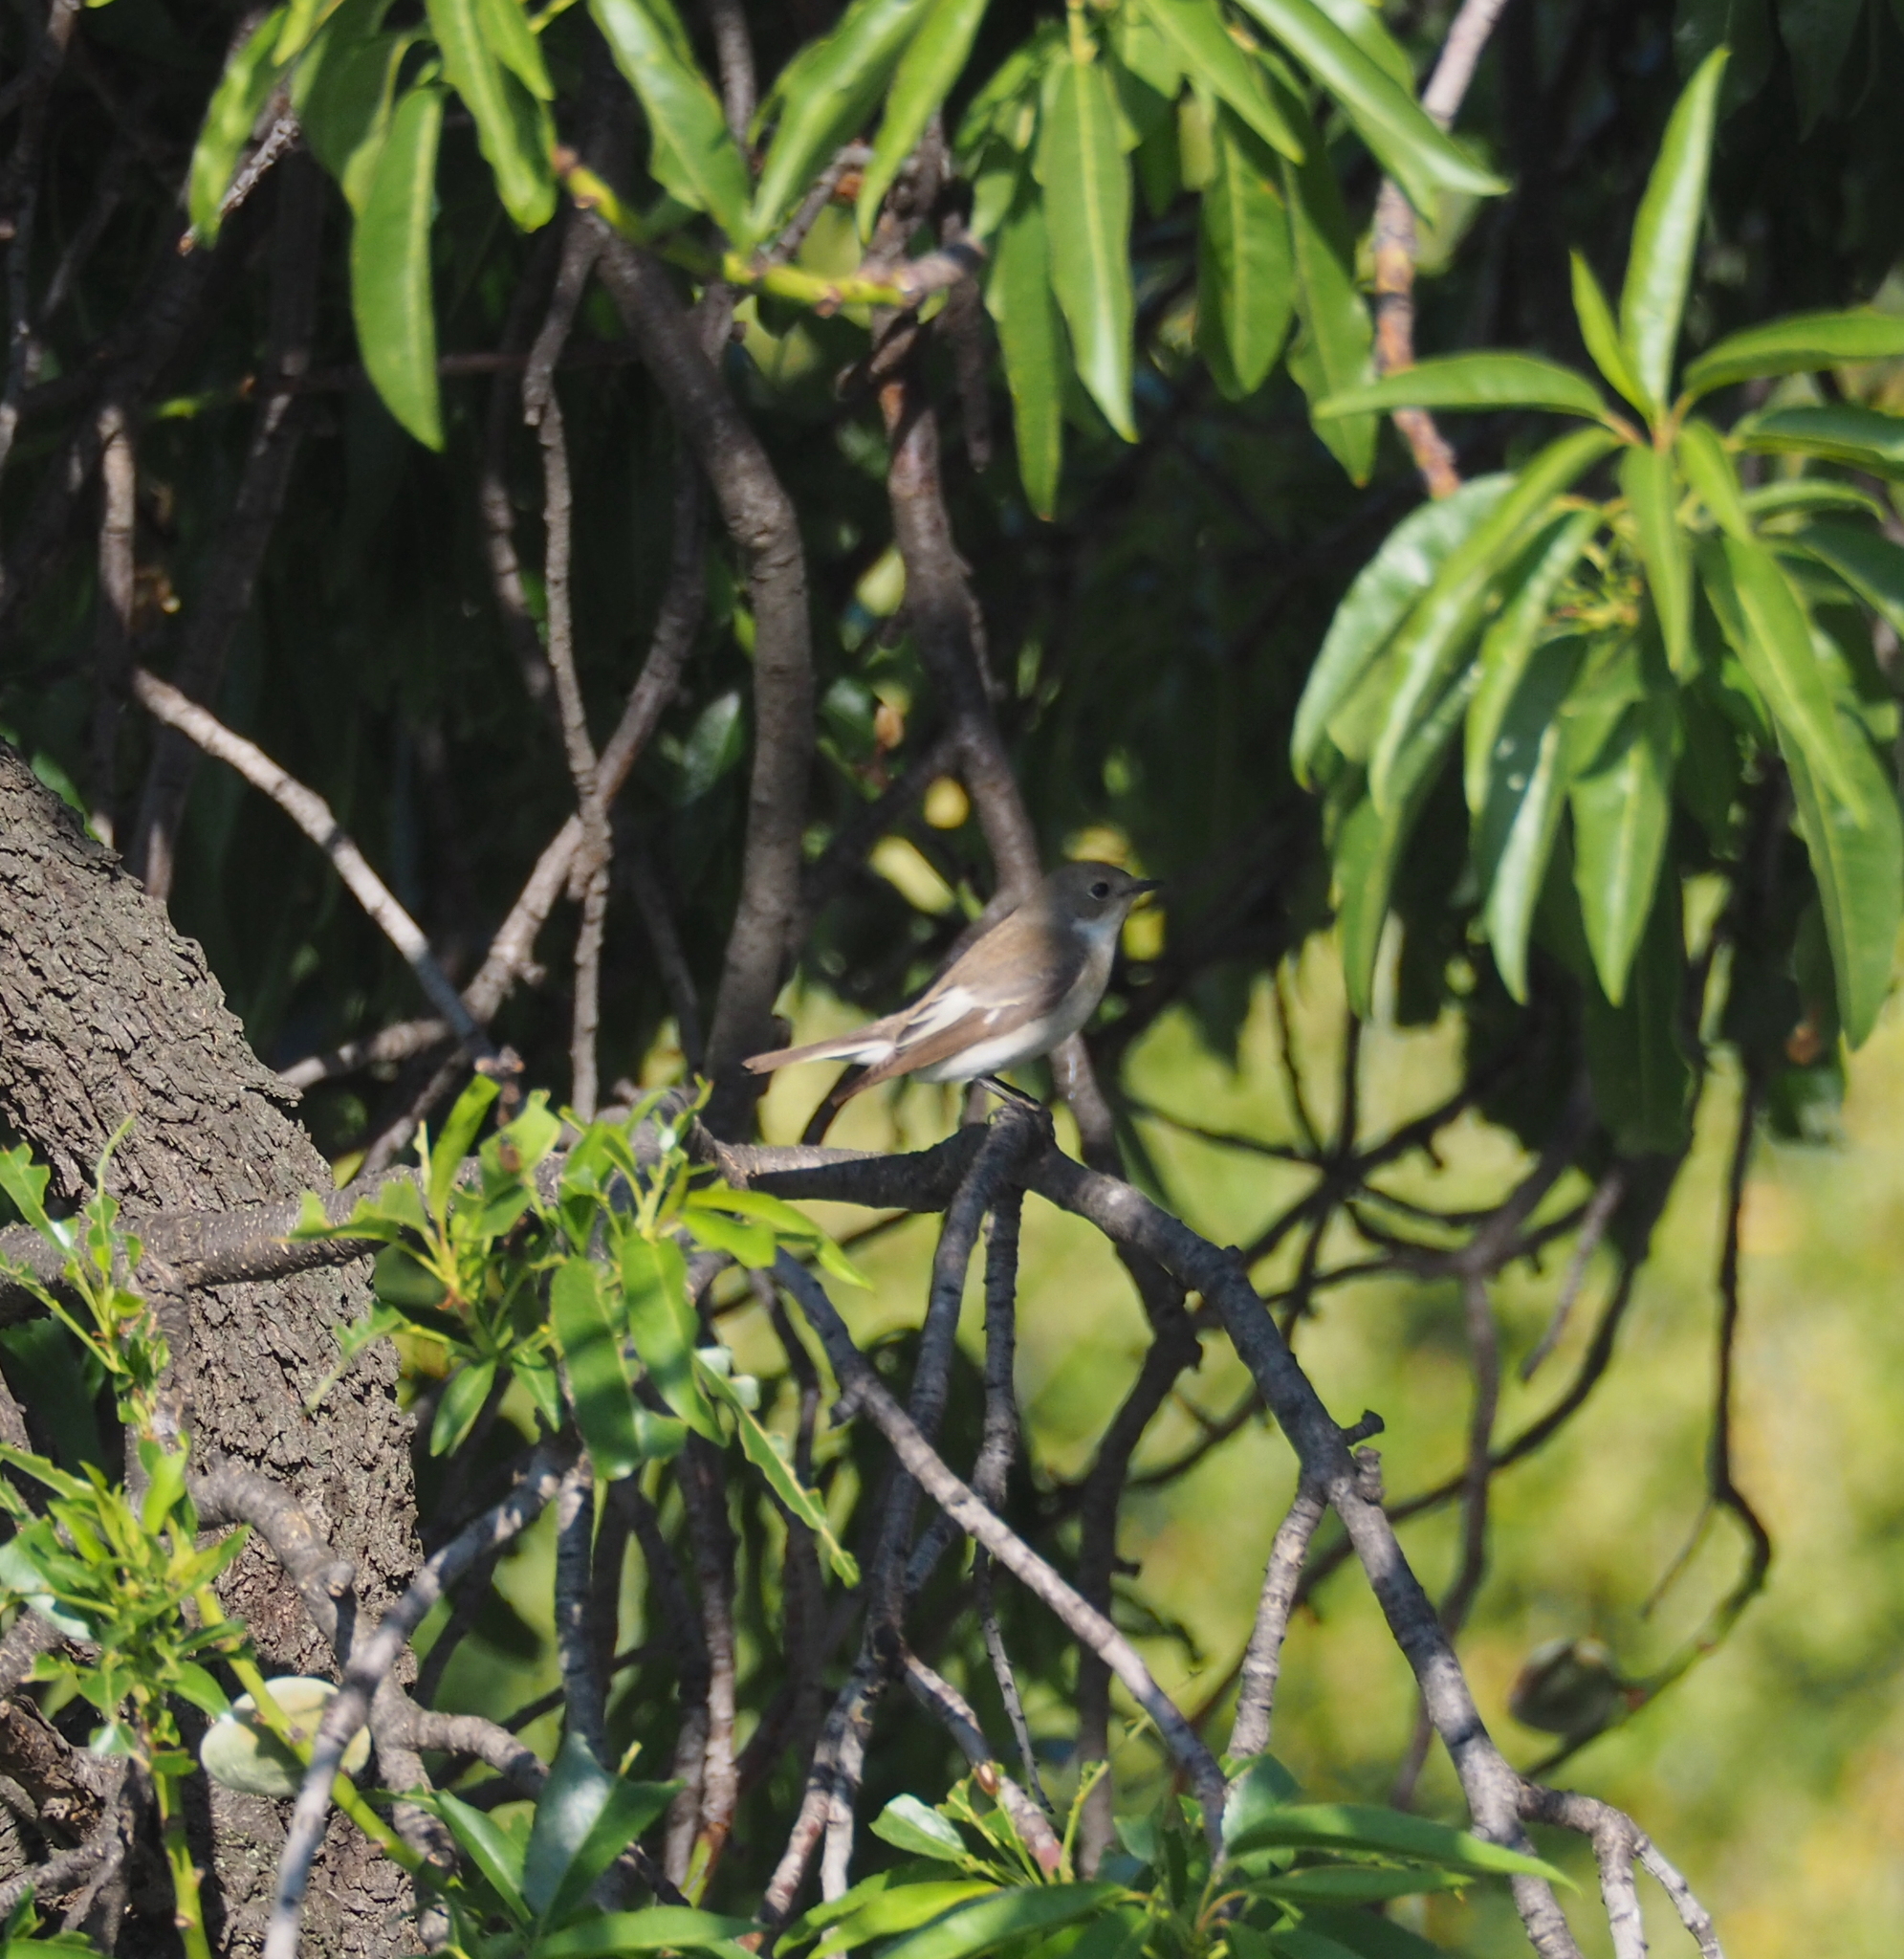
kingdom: Animalia
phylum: Chordata
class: Aves
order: Passeriformes
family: Muscicapidae
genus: Ficedula
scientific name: Ficedula hypoleuca
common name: European pied flycatcher
